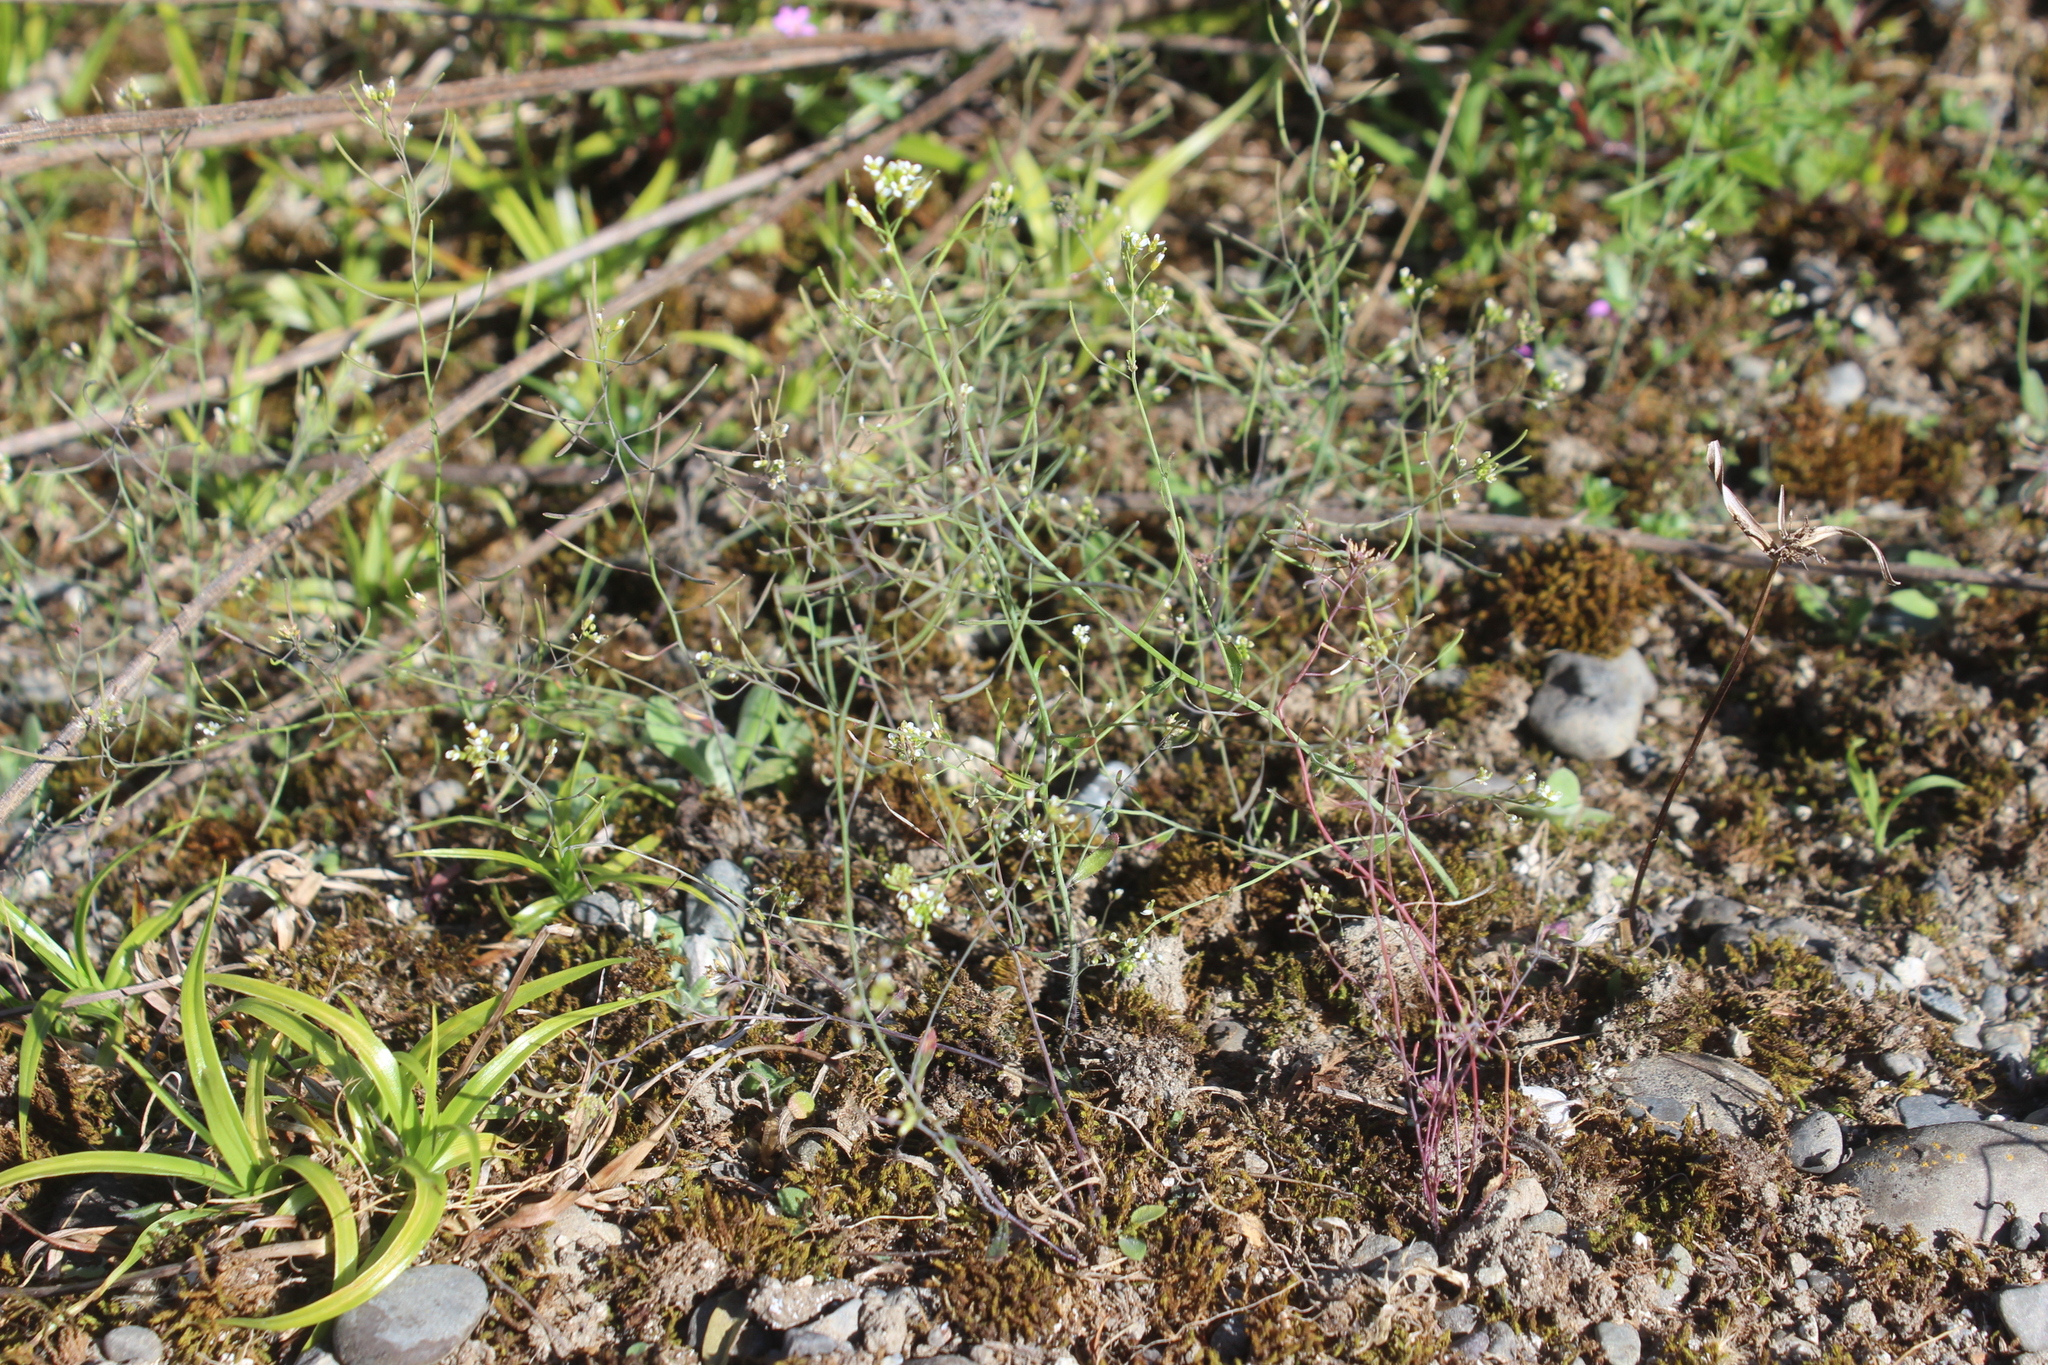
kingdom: Plantae
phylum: Tracheophyta
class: Magnoliopsida
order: Brassicales
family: Brassicaceae
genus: Arabidopsis
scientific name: Arabidopsis thaliana
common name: Thale cress
